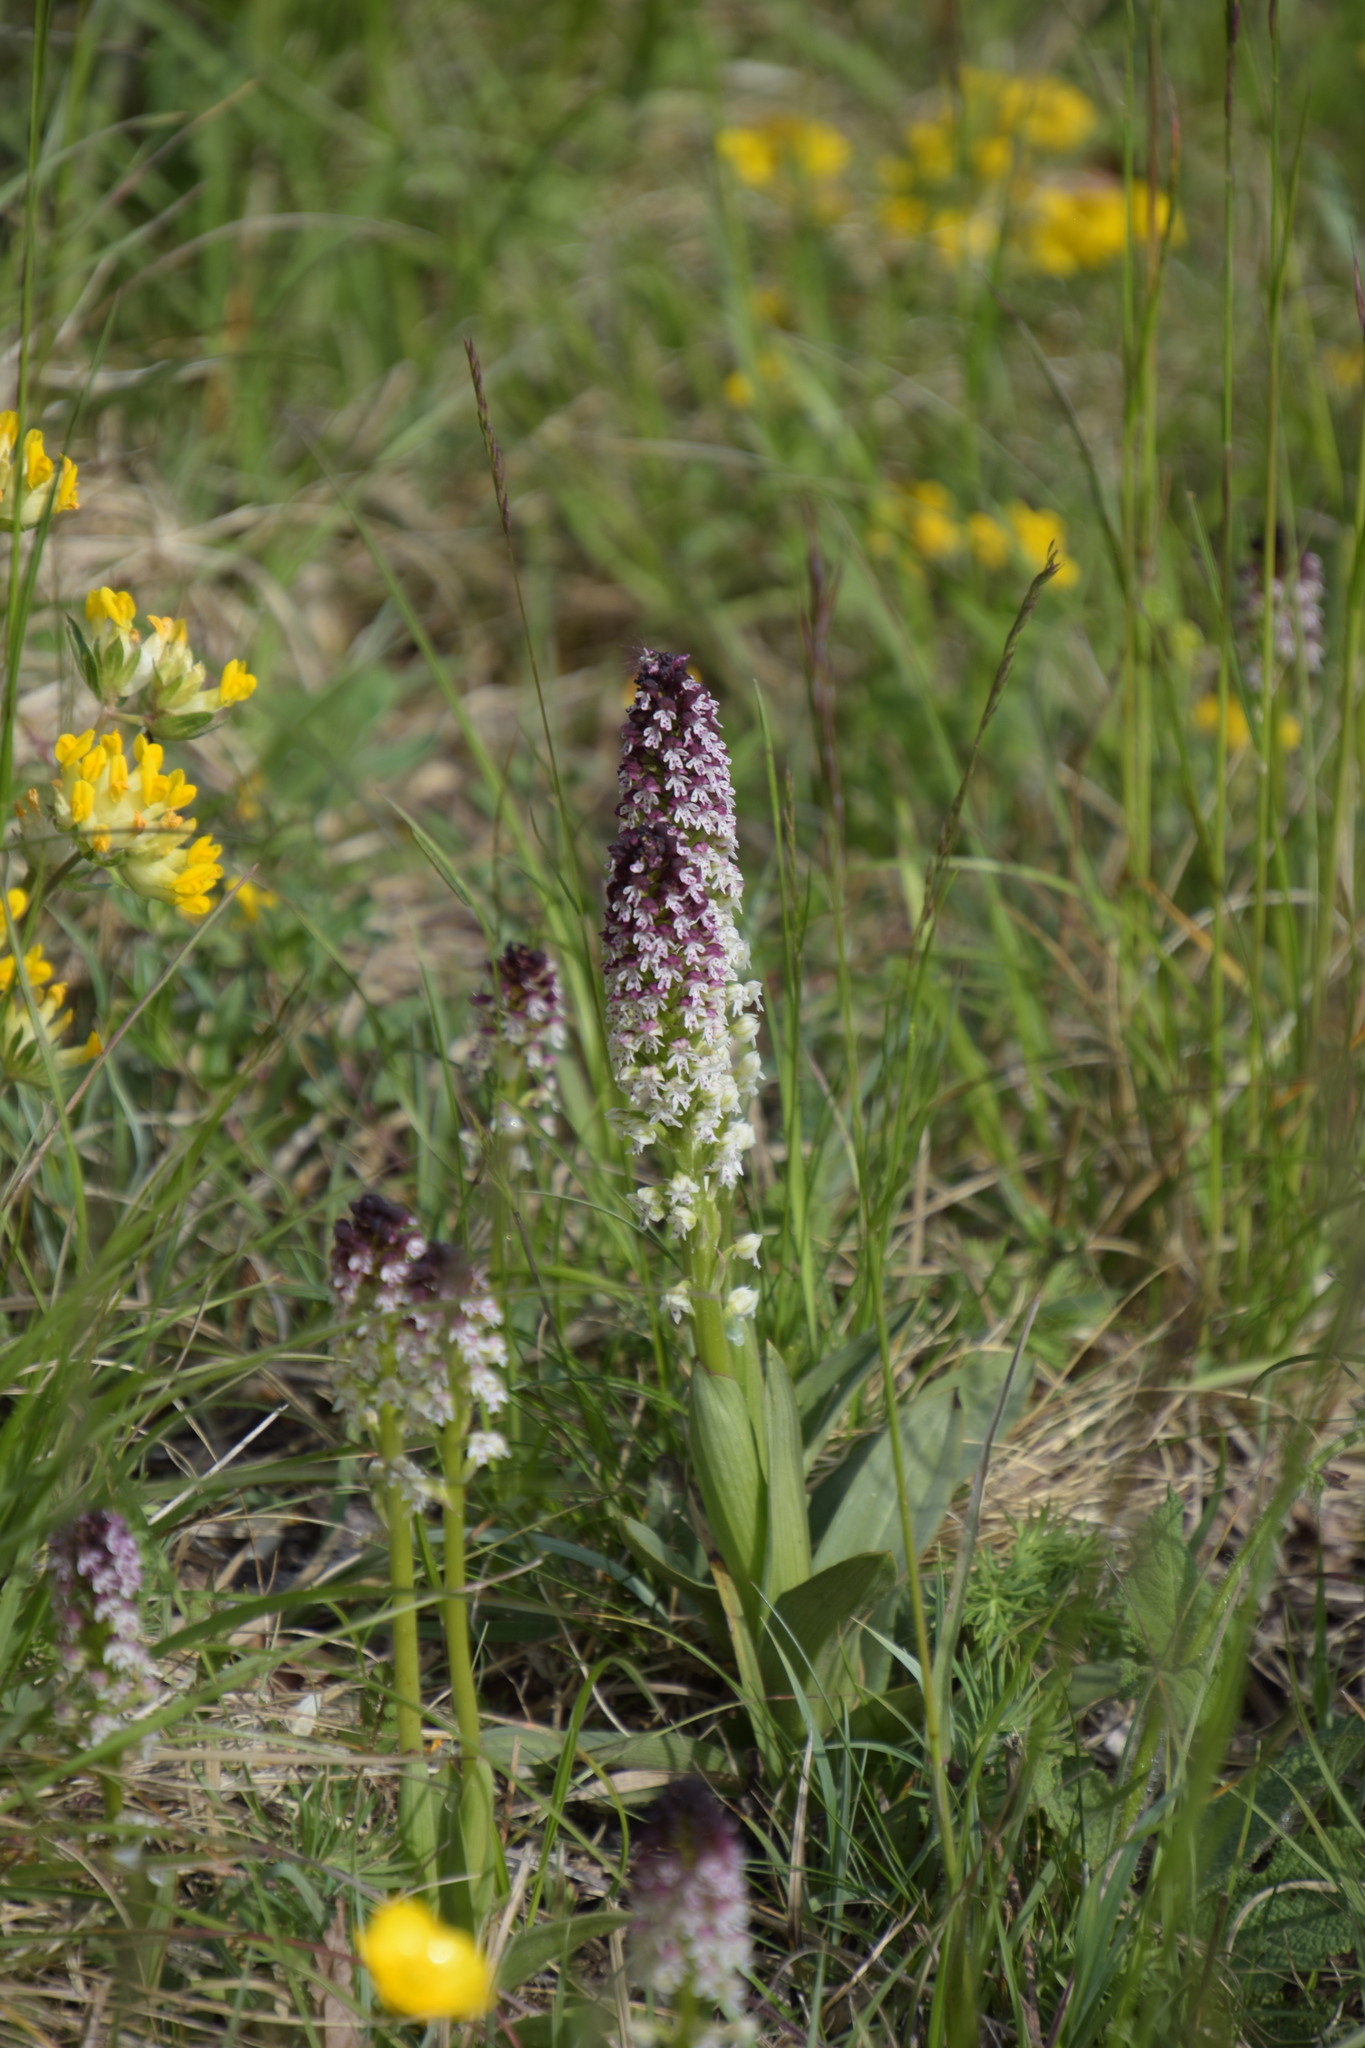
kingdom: Plantae
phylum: Tracheophyta
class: Liliopsida
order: Asparagales
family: Orchidaceae
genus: Neotinea
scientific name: Neotinea ustulata
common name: Burnt orchid
